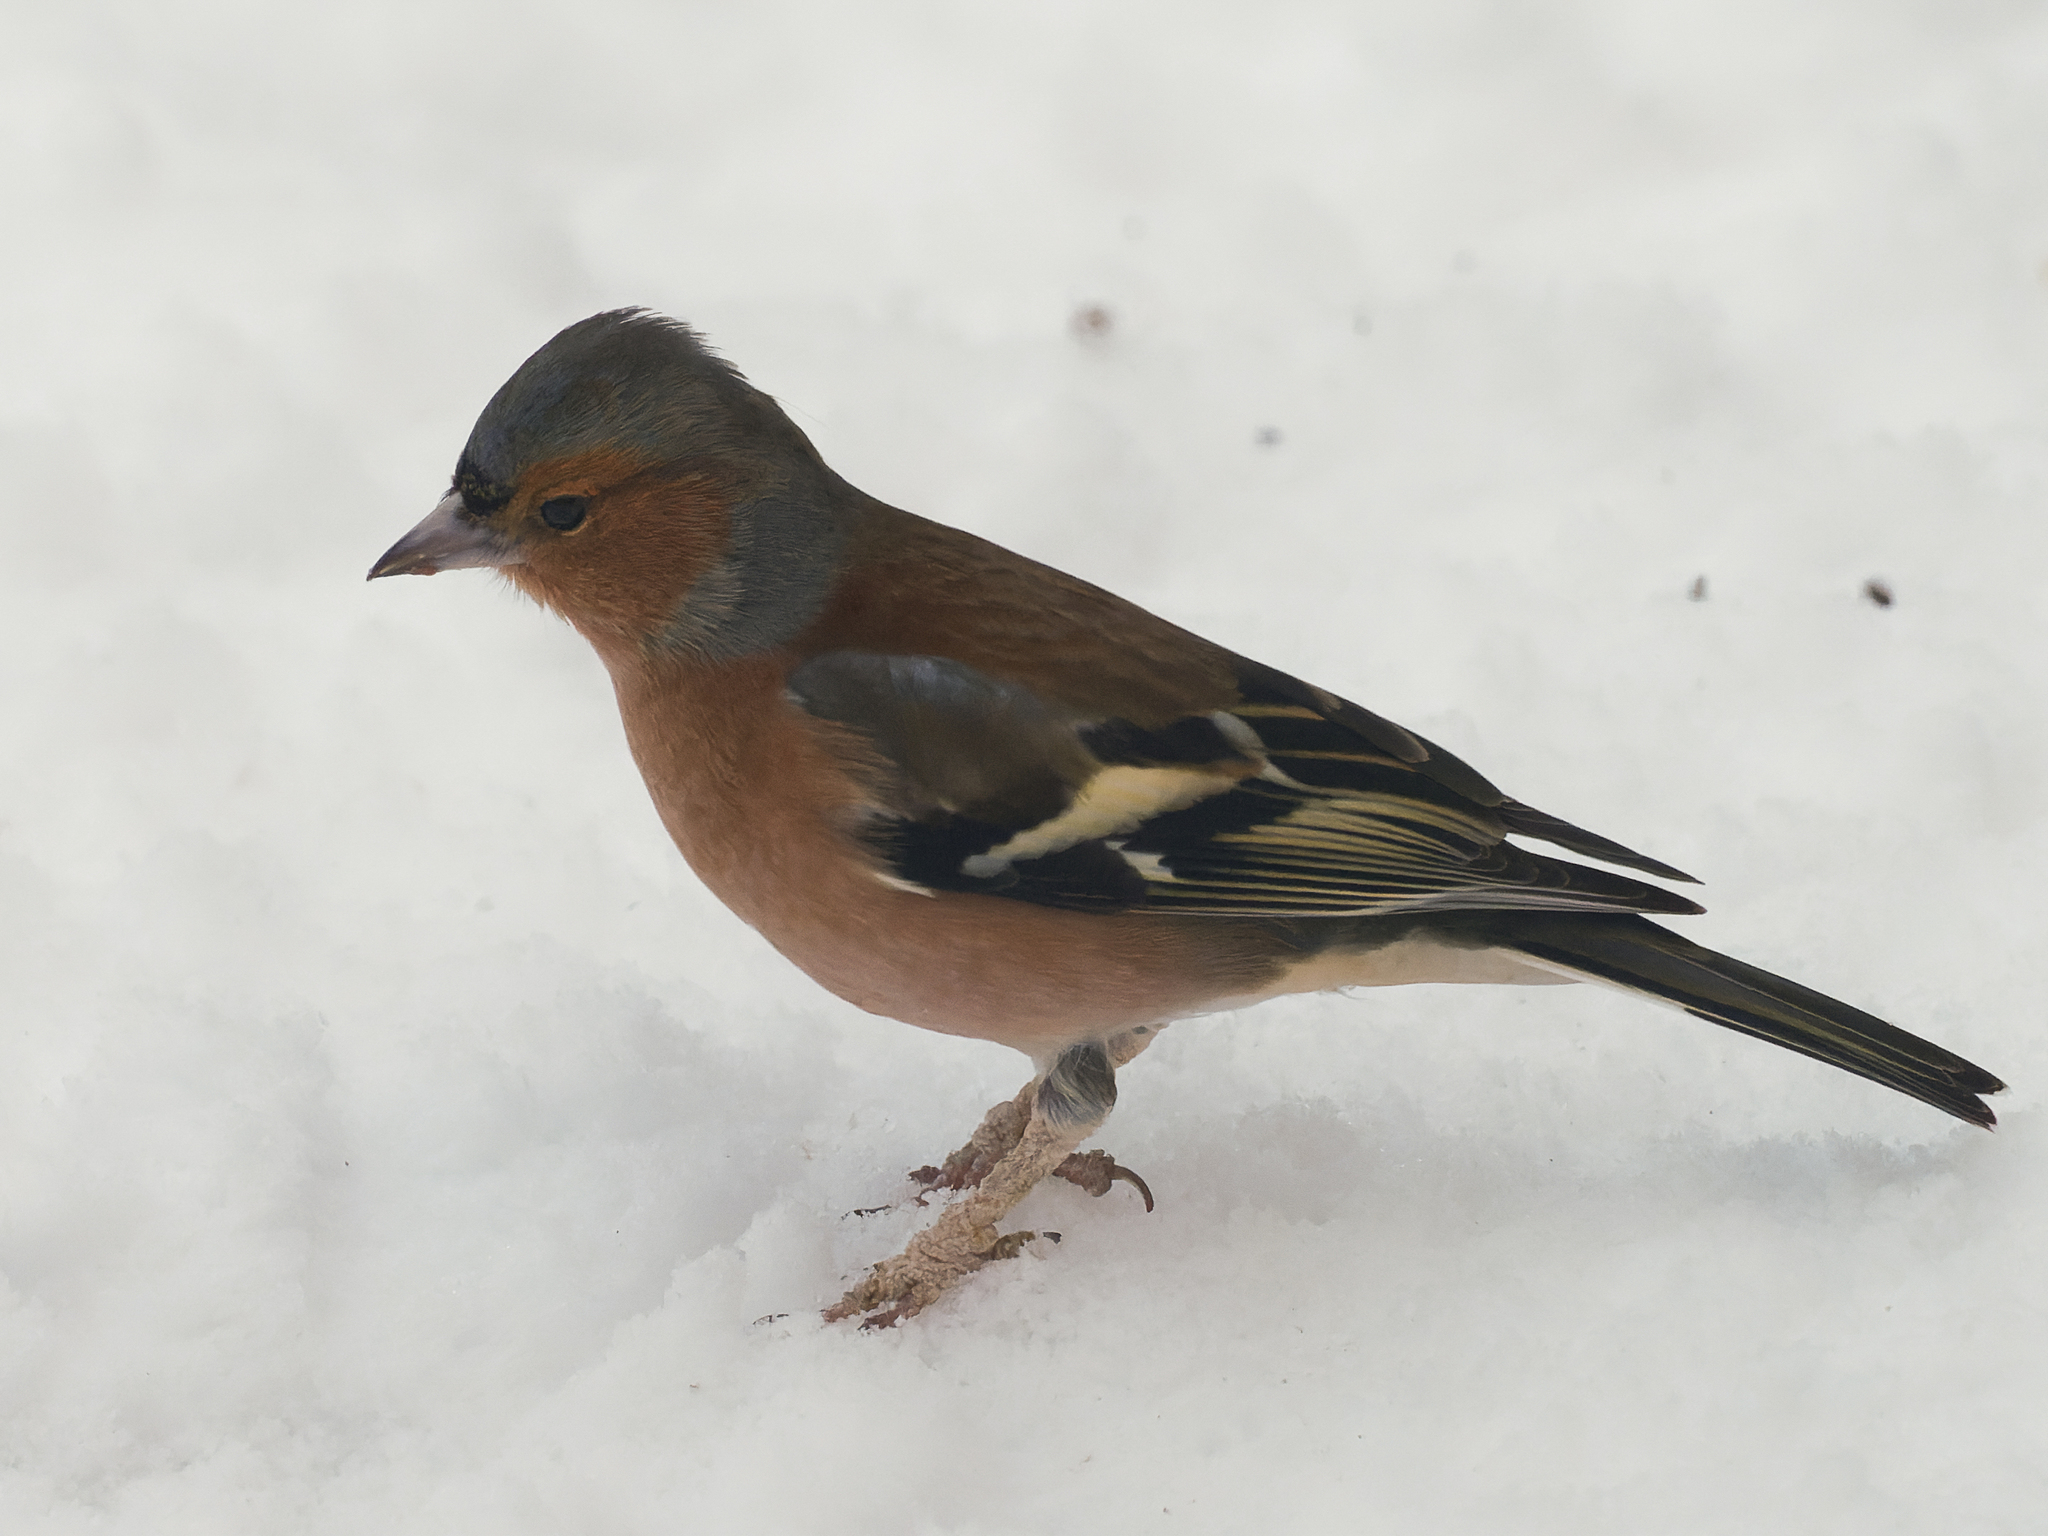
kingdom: Animalia
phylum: Chordata
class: Aves
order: Passeriformes
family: Fringillidae
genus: Fringilla
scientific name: Fringilla coelebs
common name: Common chaffinch
